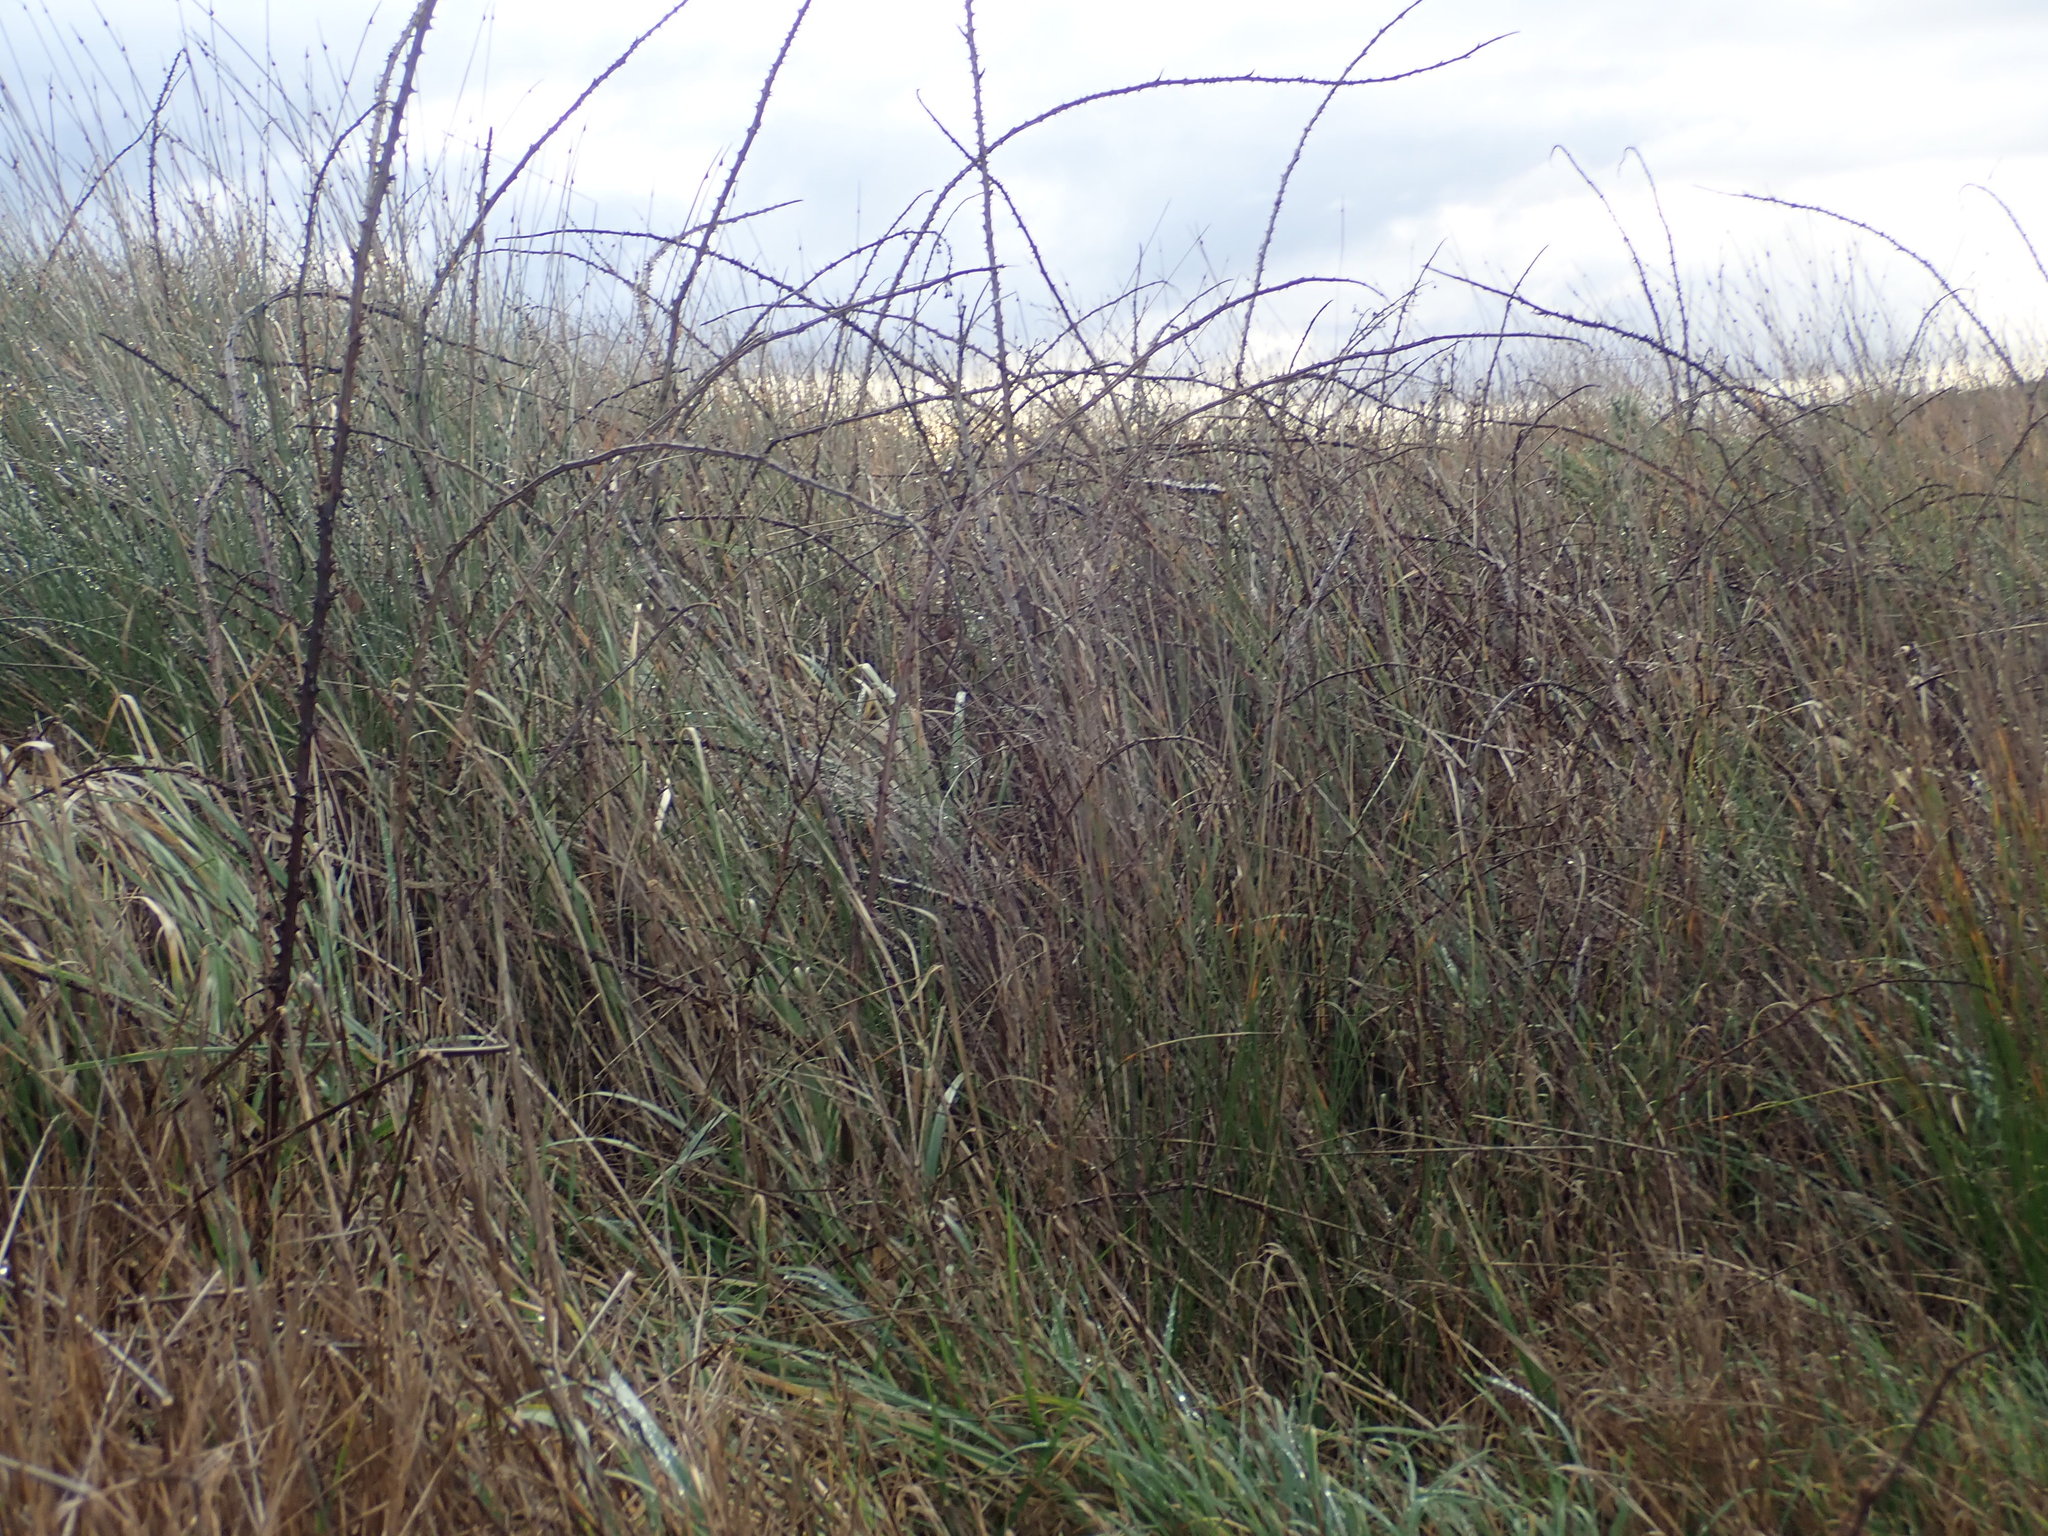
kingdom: Plantae
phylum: Tracheophyta
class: Magnoliopsida
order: Rosales
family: Rosaceae
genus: Rubus
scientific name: Rubus
